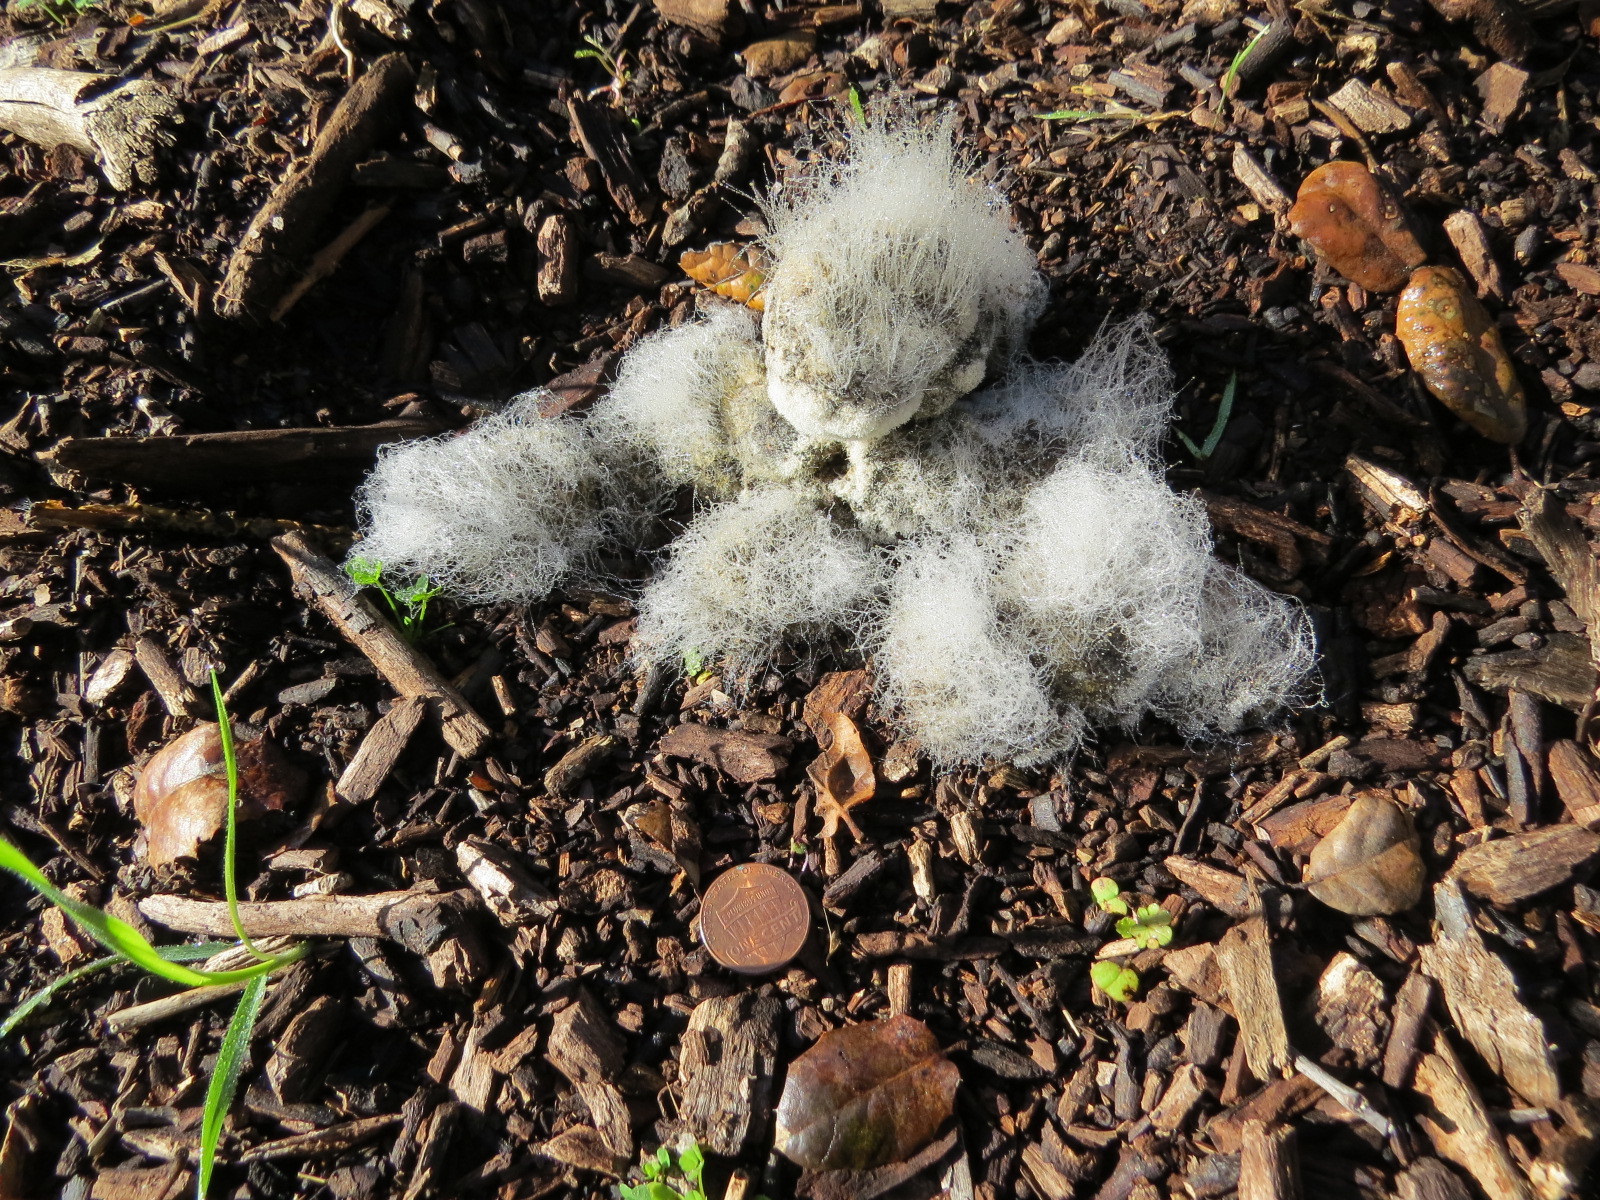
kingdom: Animalia
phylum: Chordata
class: Mammalia
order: Carnivora
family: Felidae
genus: Puma
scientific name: Puma concolor
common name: Puma
